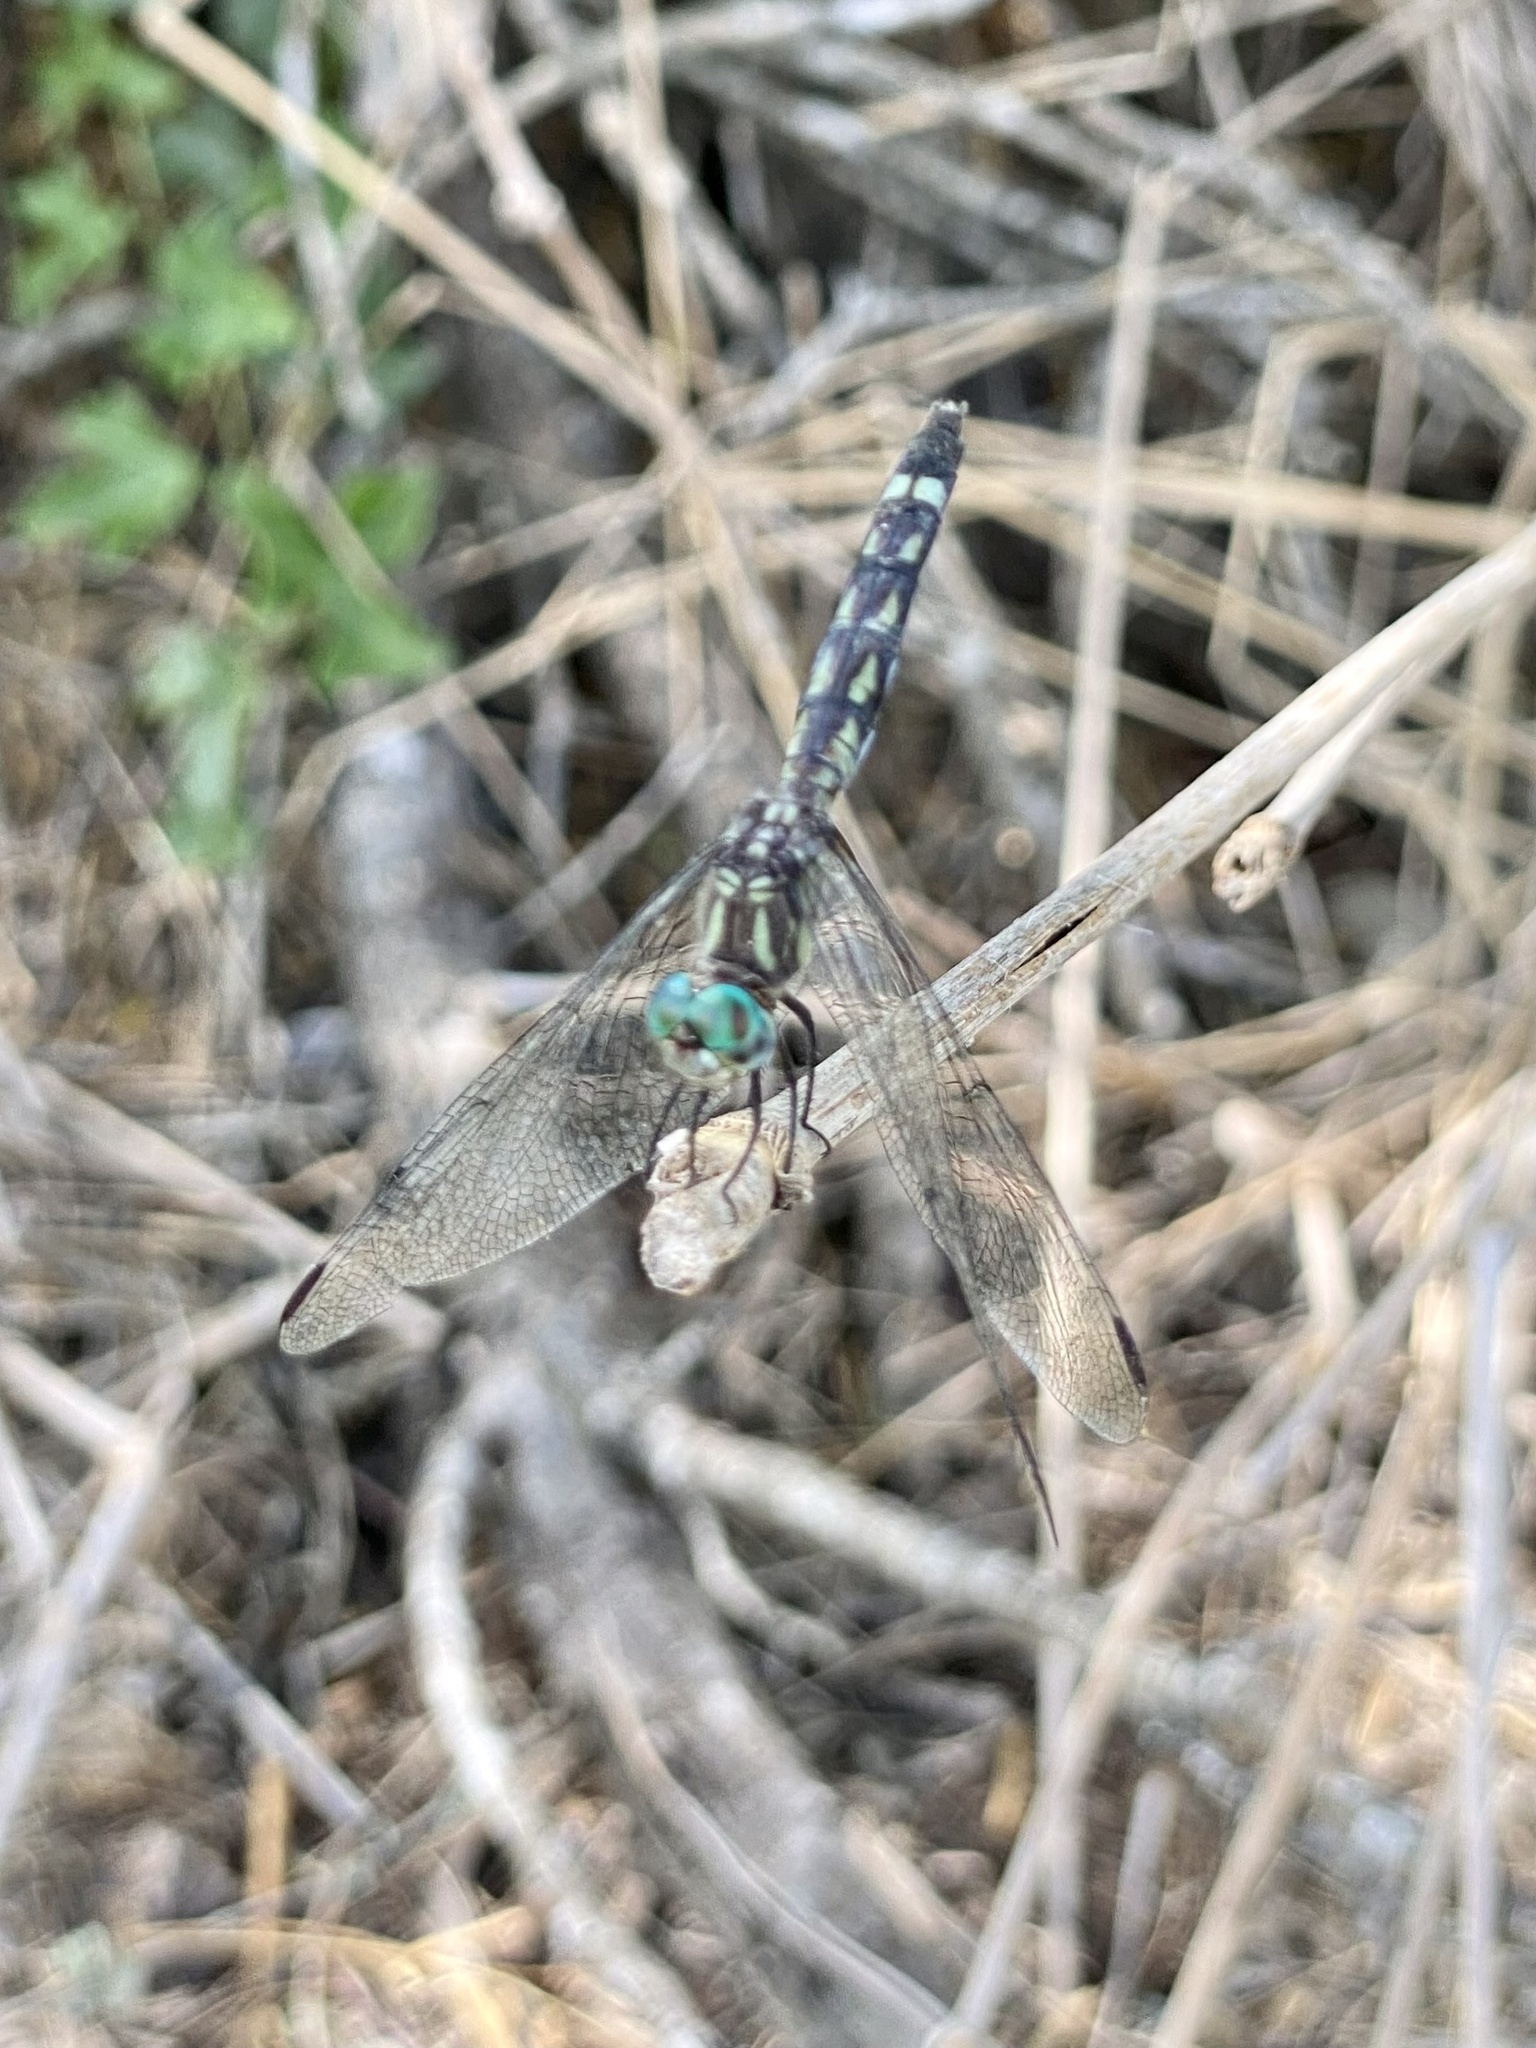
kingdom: Animalia
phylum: Arthropoda
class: Insecta
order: Odonata
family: Libellulidae
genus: Micrathyria
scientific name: Micrathyria hagenii
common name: Thornbush dasher
